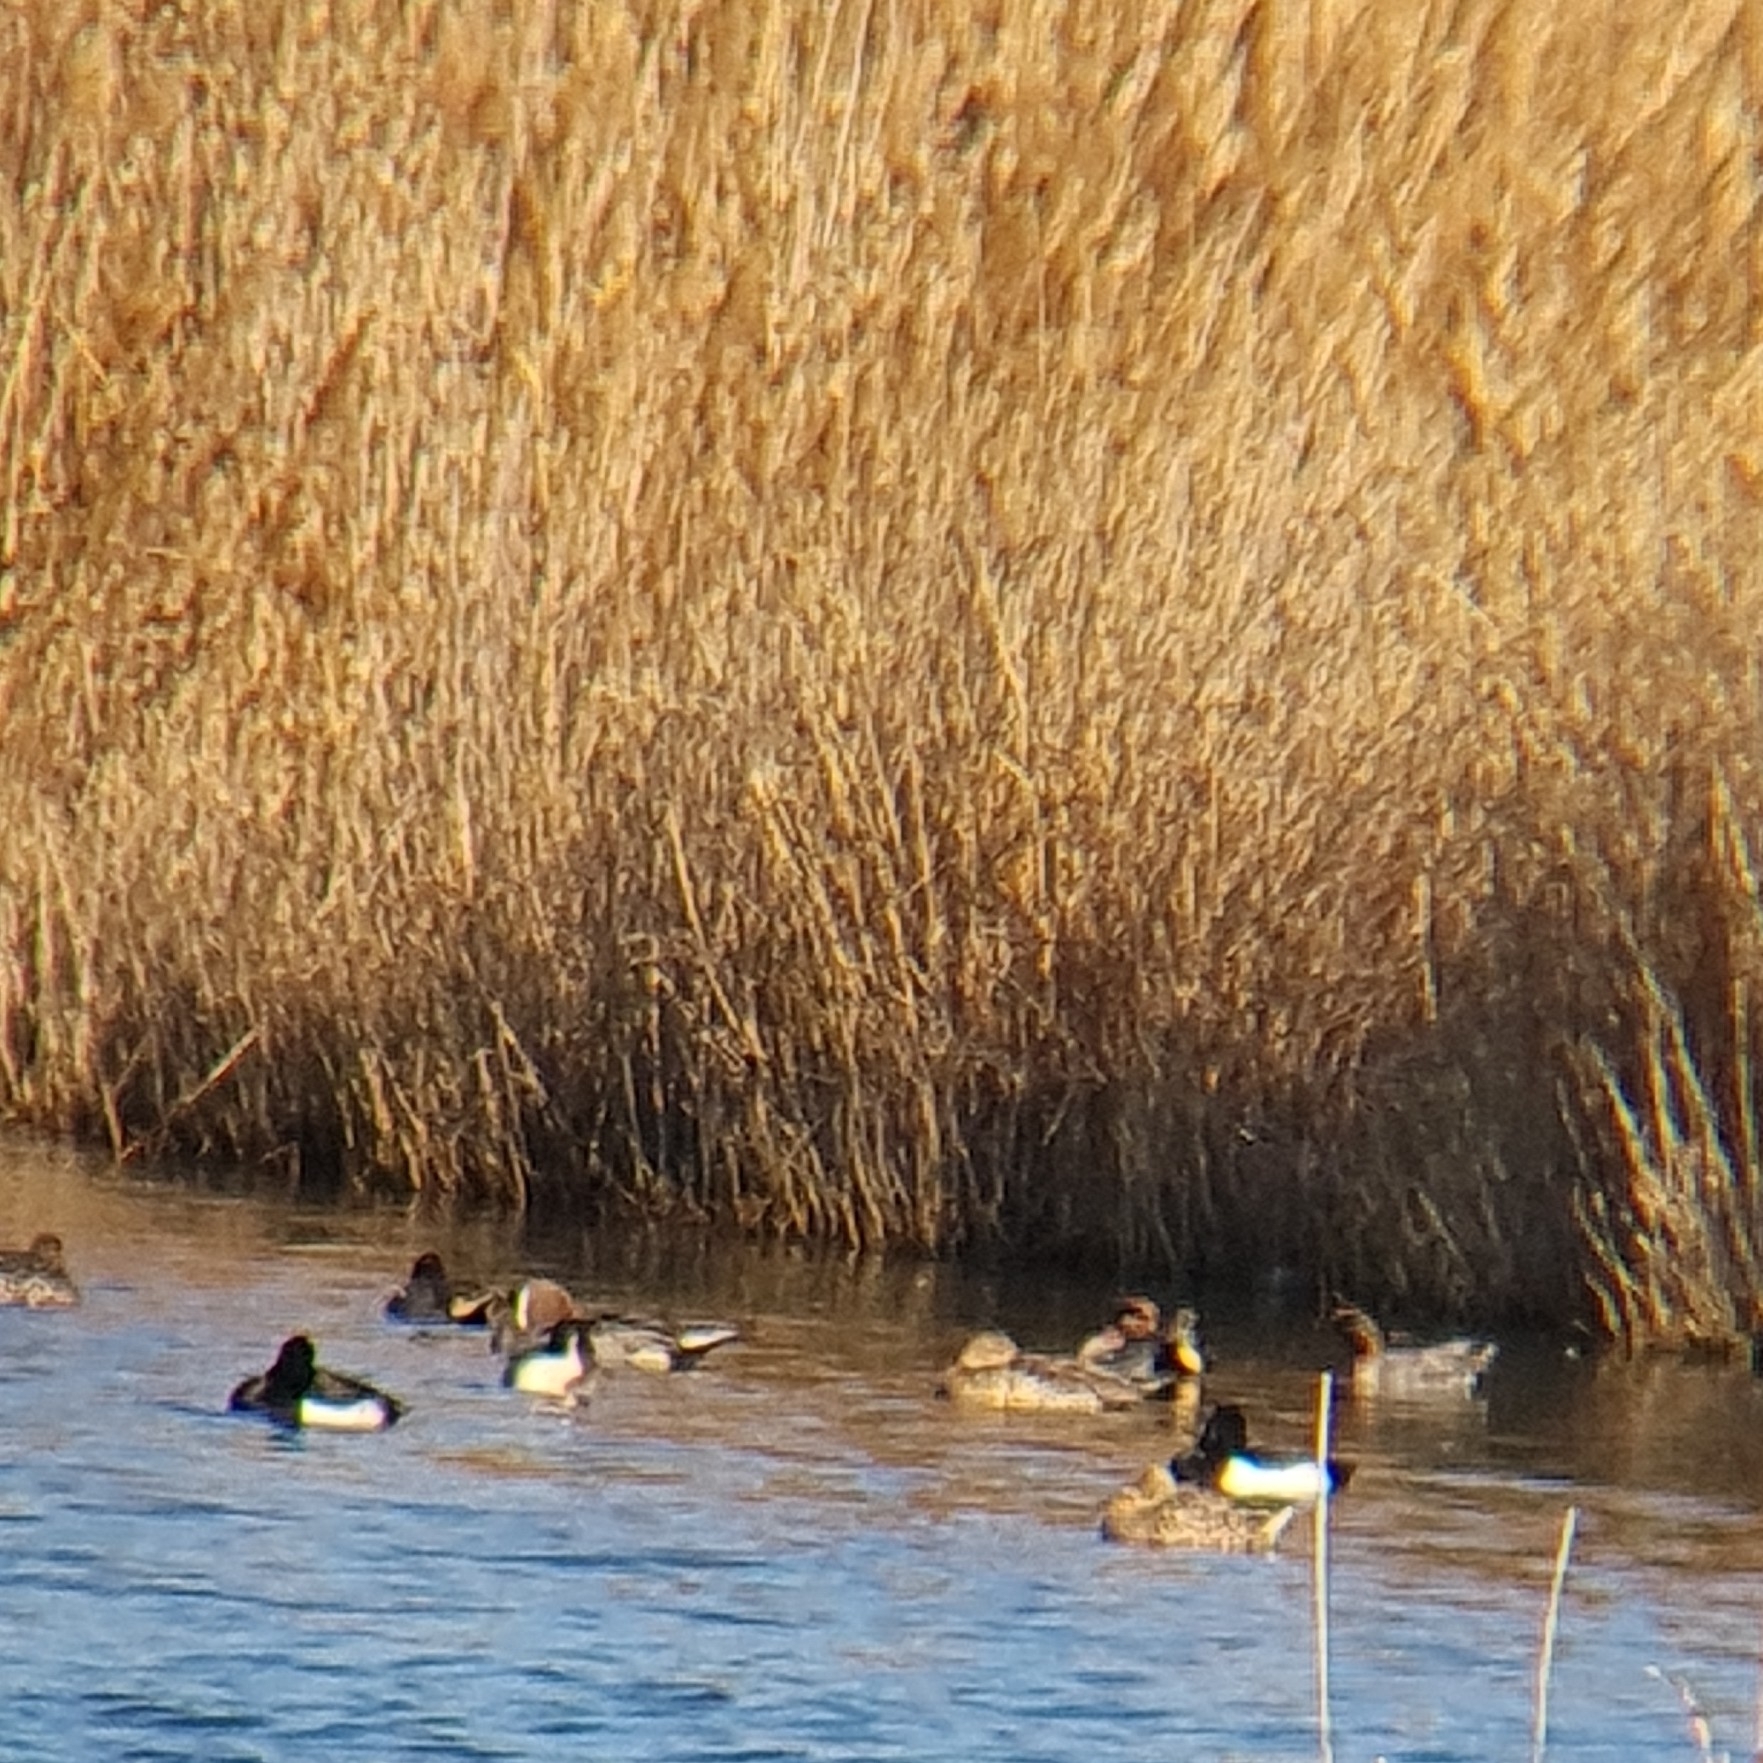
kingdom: Animalia
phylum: Chordata
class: Aves
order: Anseriformes
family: Anatidae
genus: Aythya
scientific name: Aythya fuligula
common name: Tufted duck
